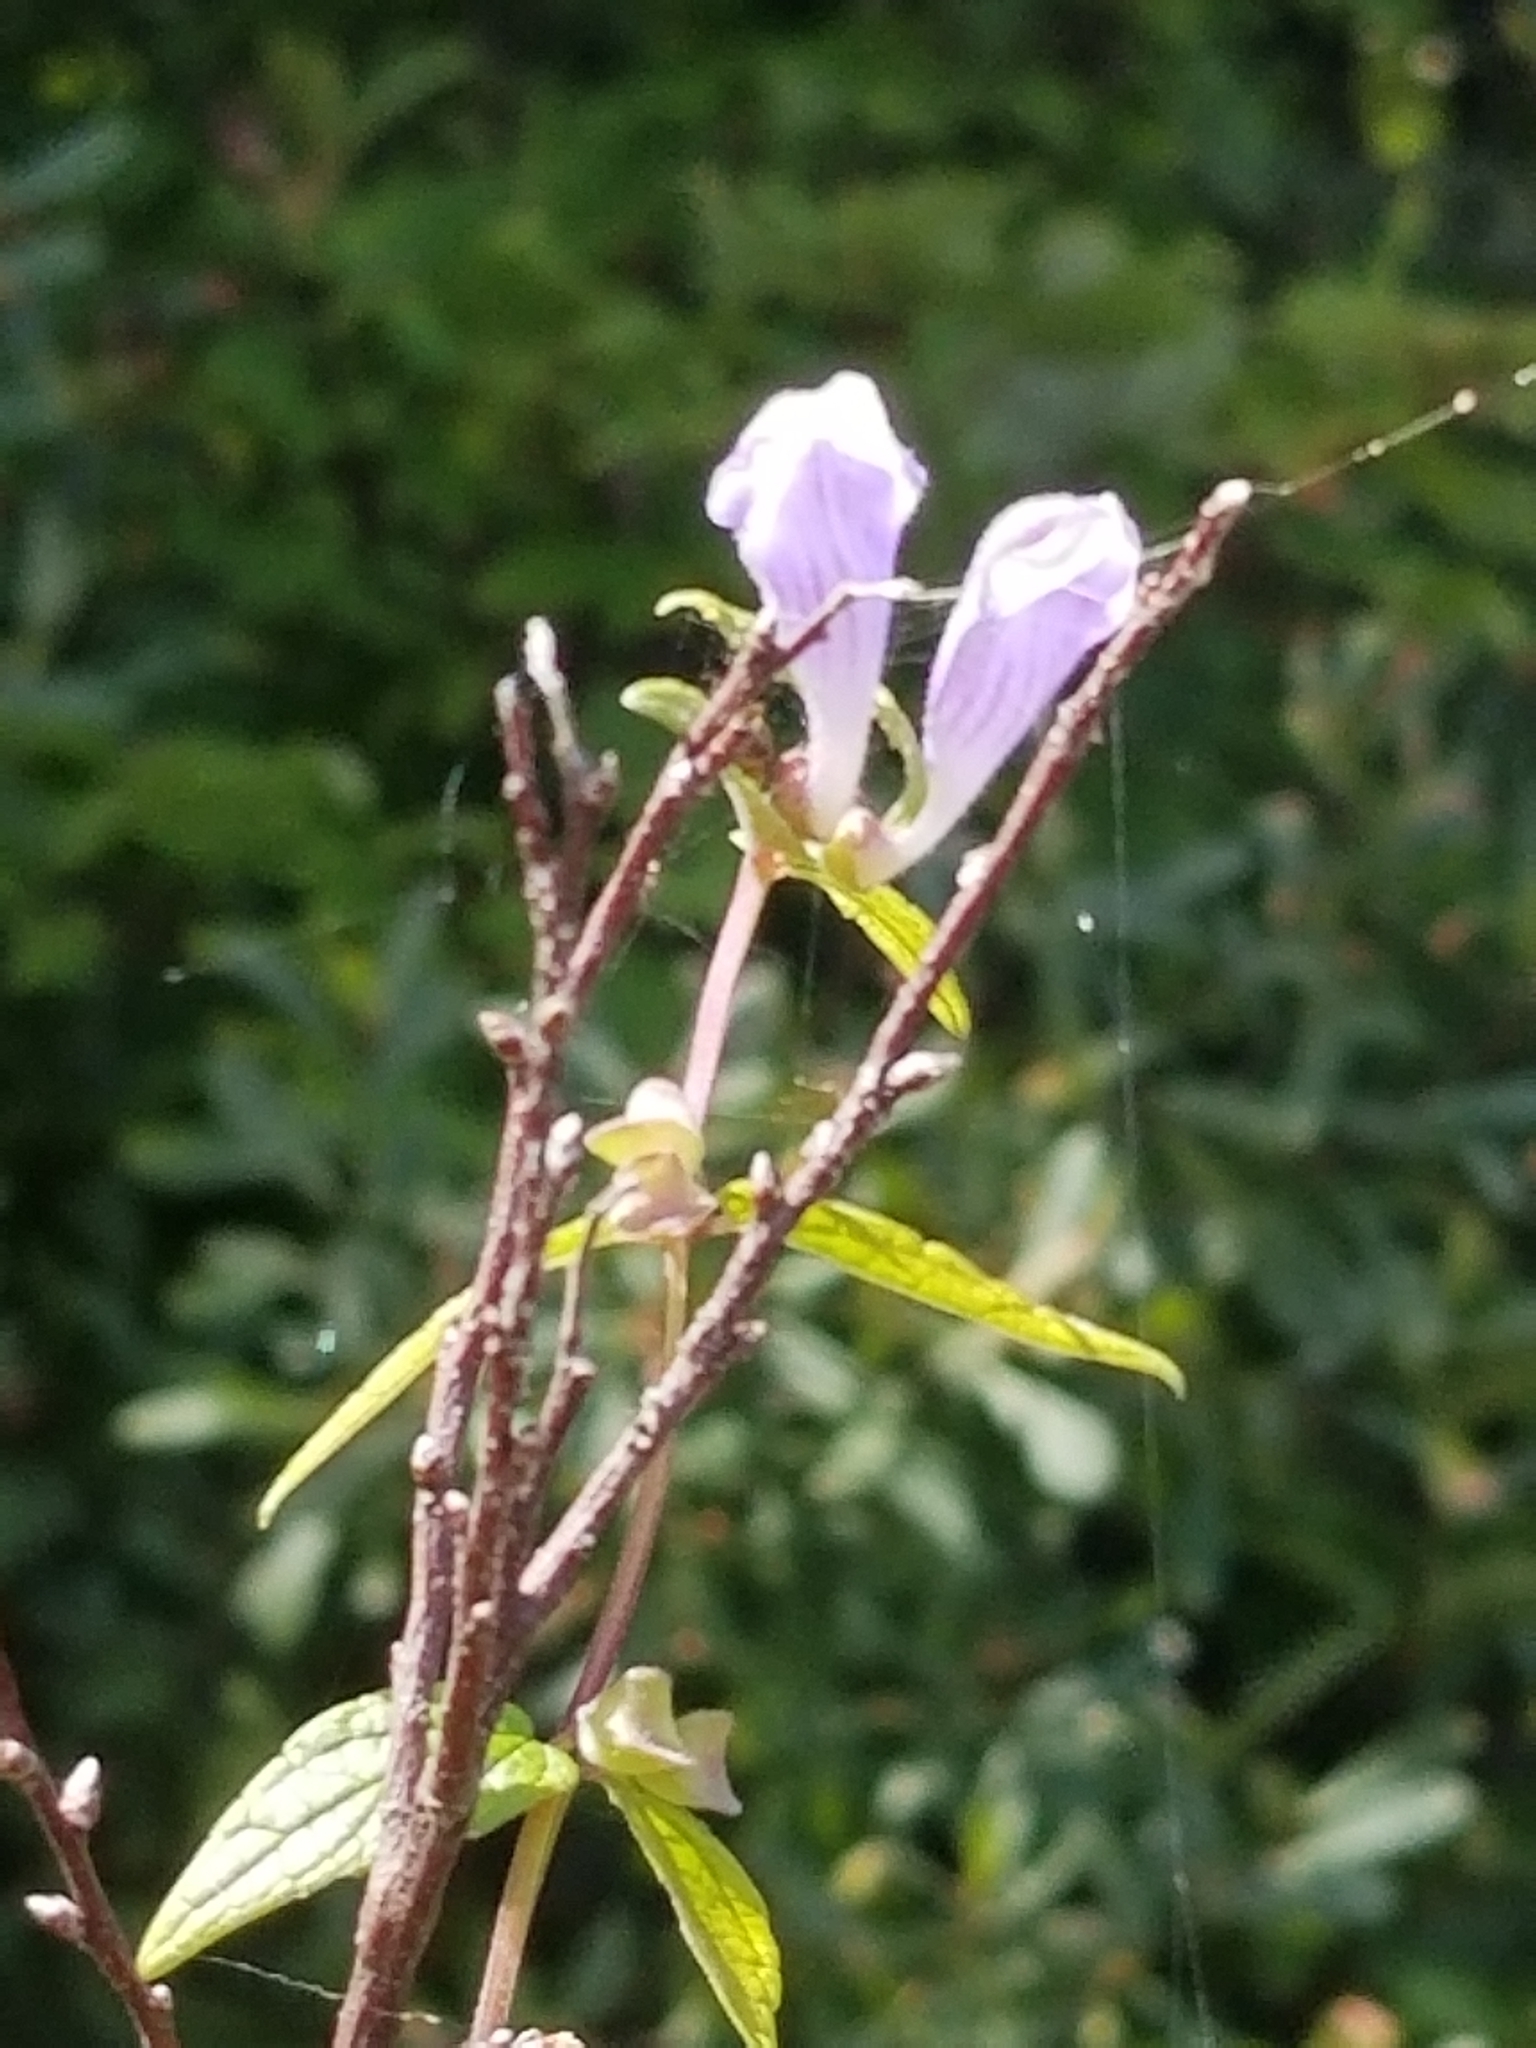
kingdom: Plantae
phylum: Tracheophyta
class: Magnoliopsida
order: Lamiales
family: Lamiaceae
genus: Scutellaria
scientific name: Scutellaria galericulata
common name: Skullcap
